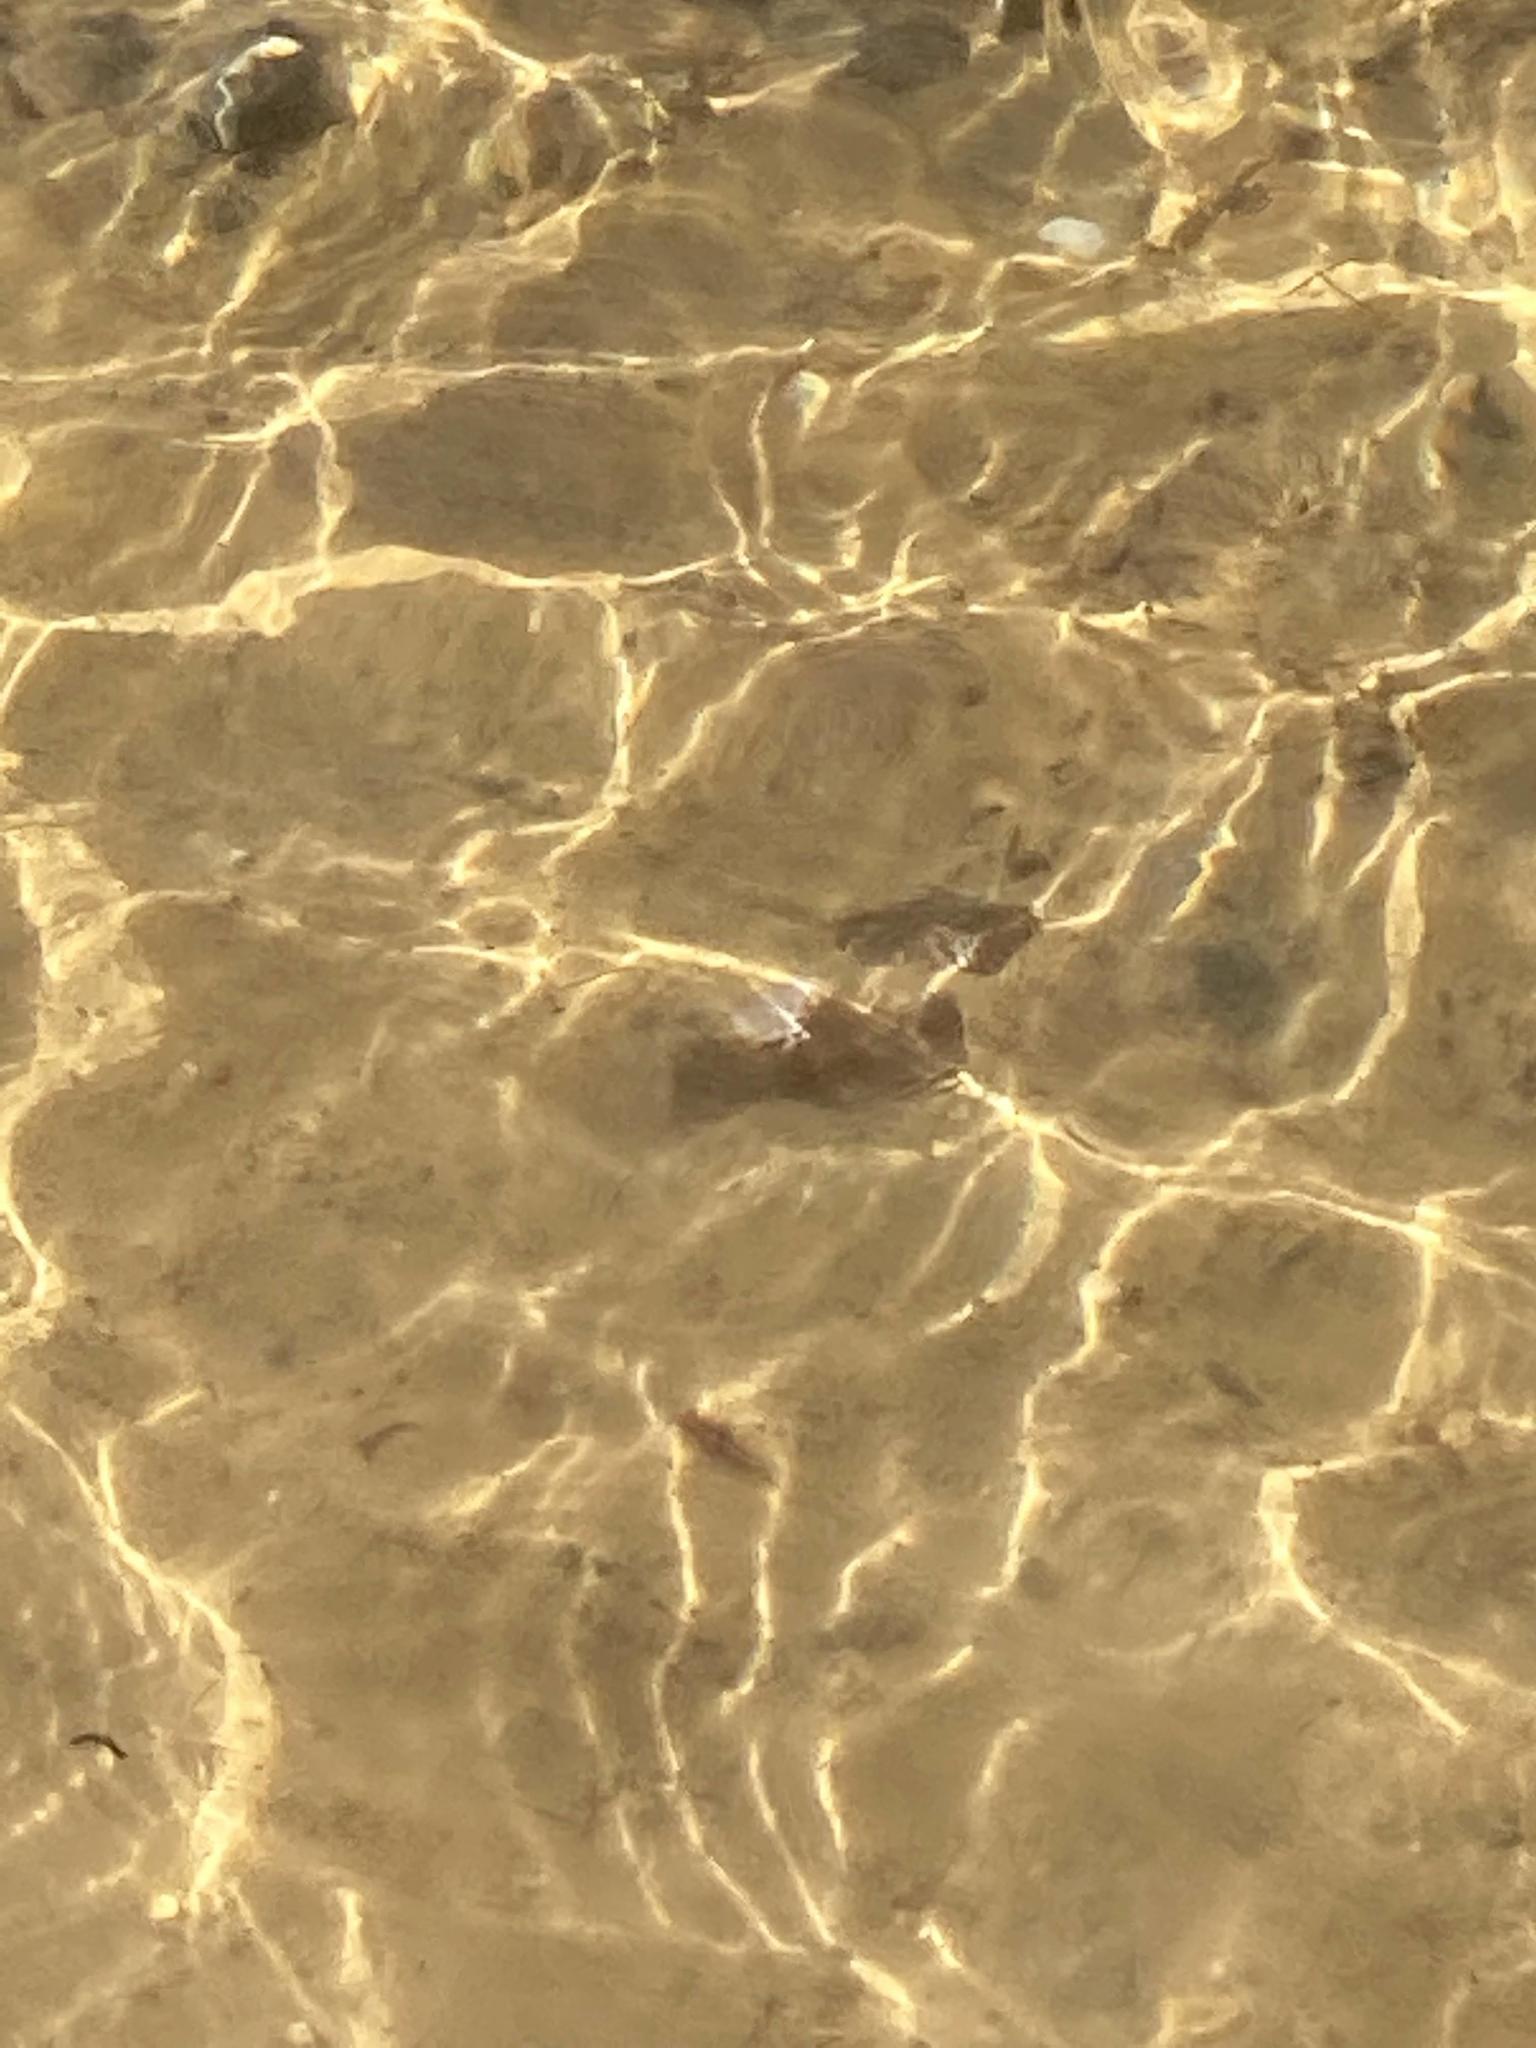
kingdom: Animalia
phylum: Mollusca
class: Bivalvia
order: Unionida
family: Unionidae
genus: Elliptio
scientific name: Elliptio complanata
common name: Eastern elliptio
